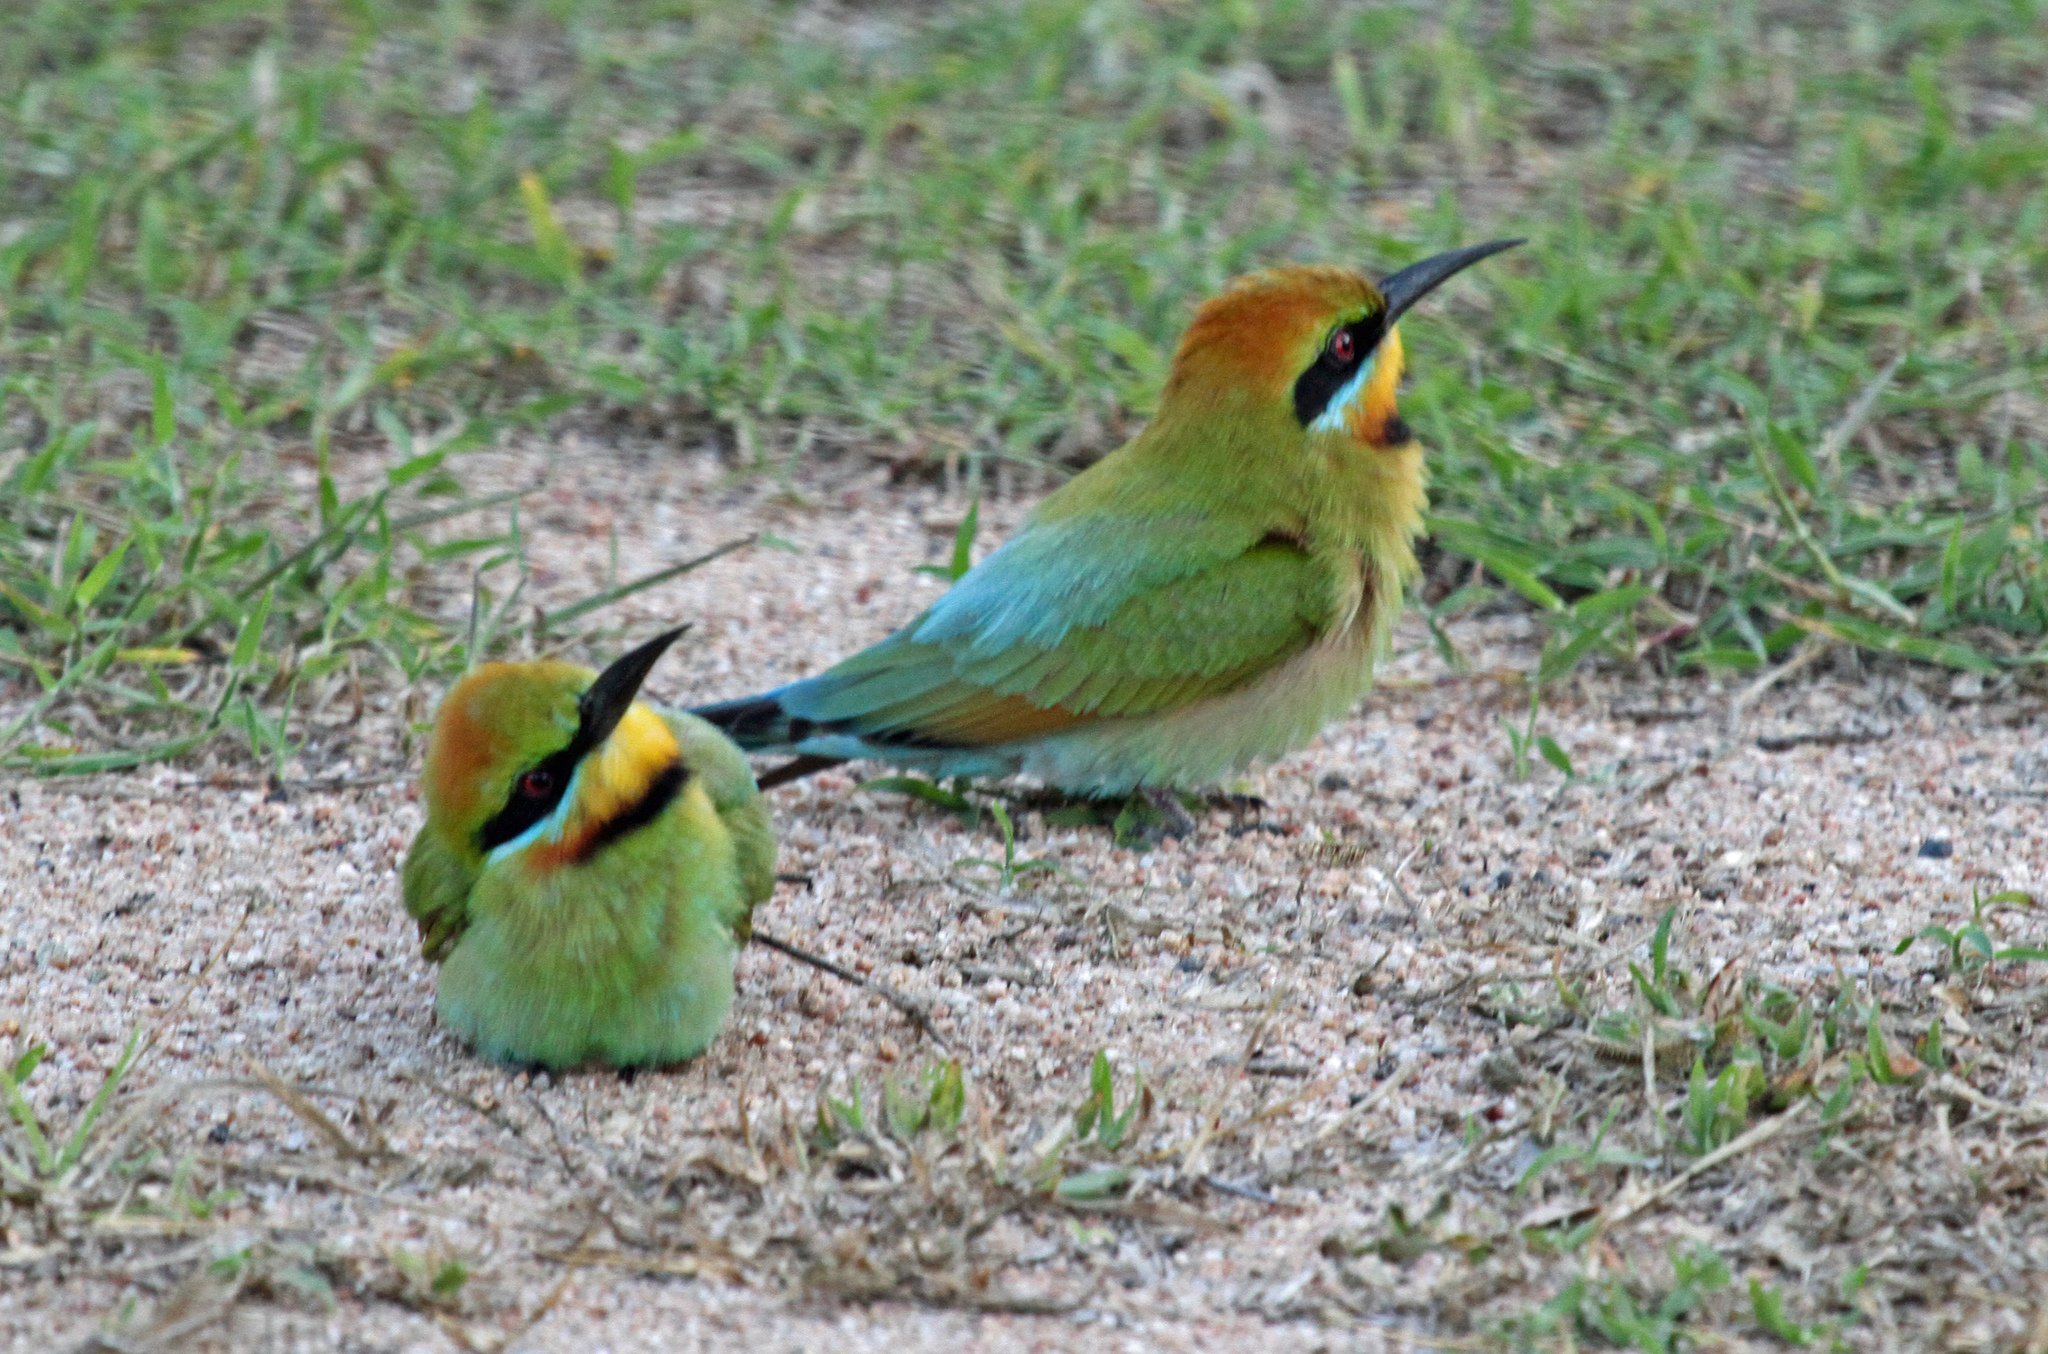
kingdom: Animalia
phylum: Chordata
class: Aves
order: Coraciiformes
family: Meropidae
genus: Merops
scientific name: Merops ornatus
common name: Rainbow bee-eater
